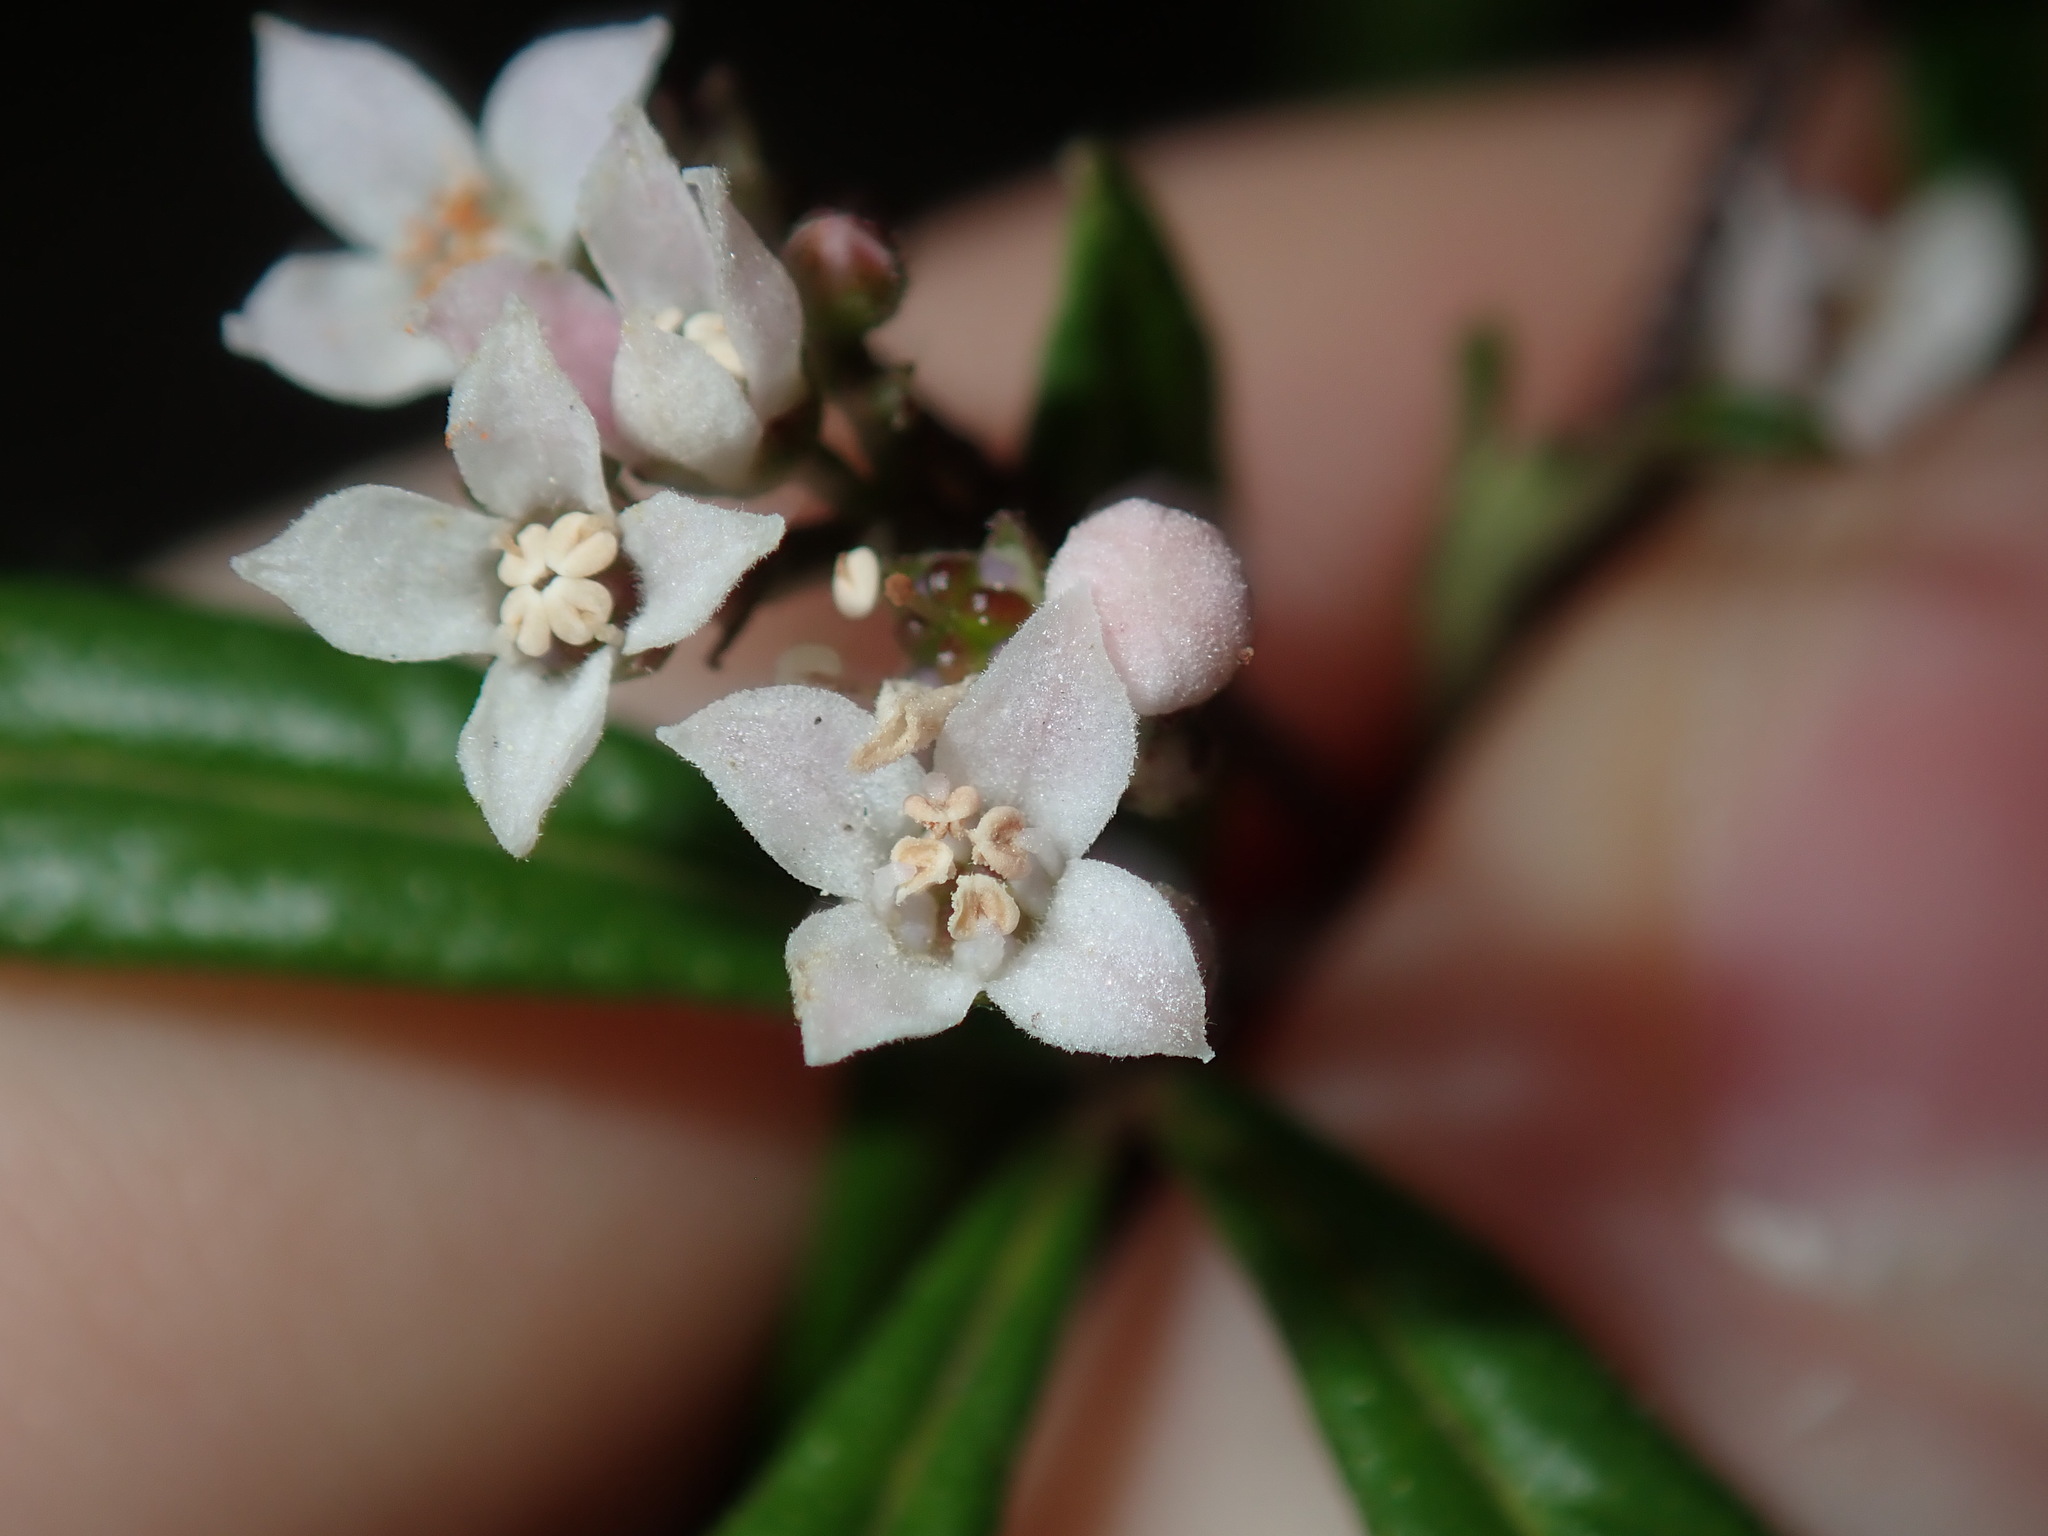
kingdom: Plantae
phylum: Tracheophyta
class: Magnoliopsida
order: Sapindales
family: Rutaceae
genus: Zieria
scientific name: Zieria smithii
